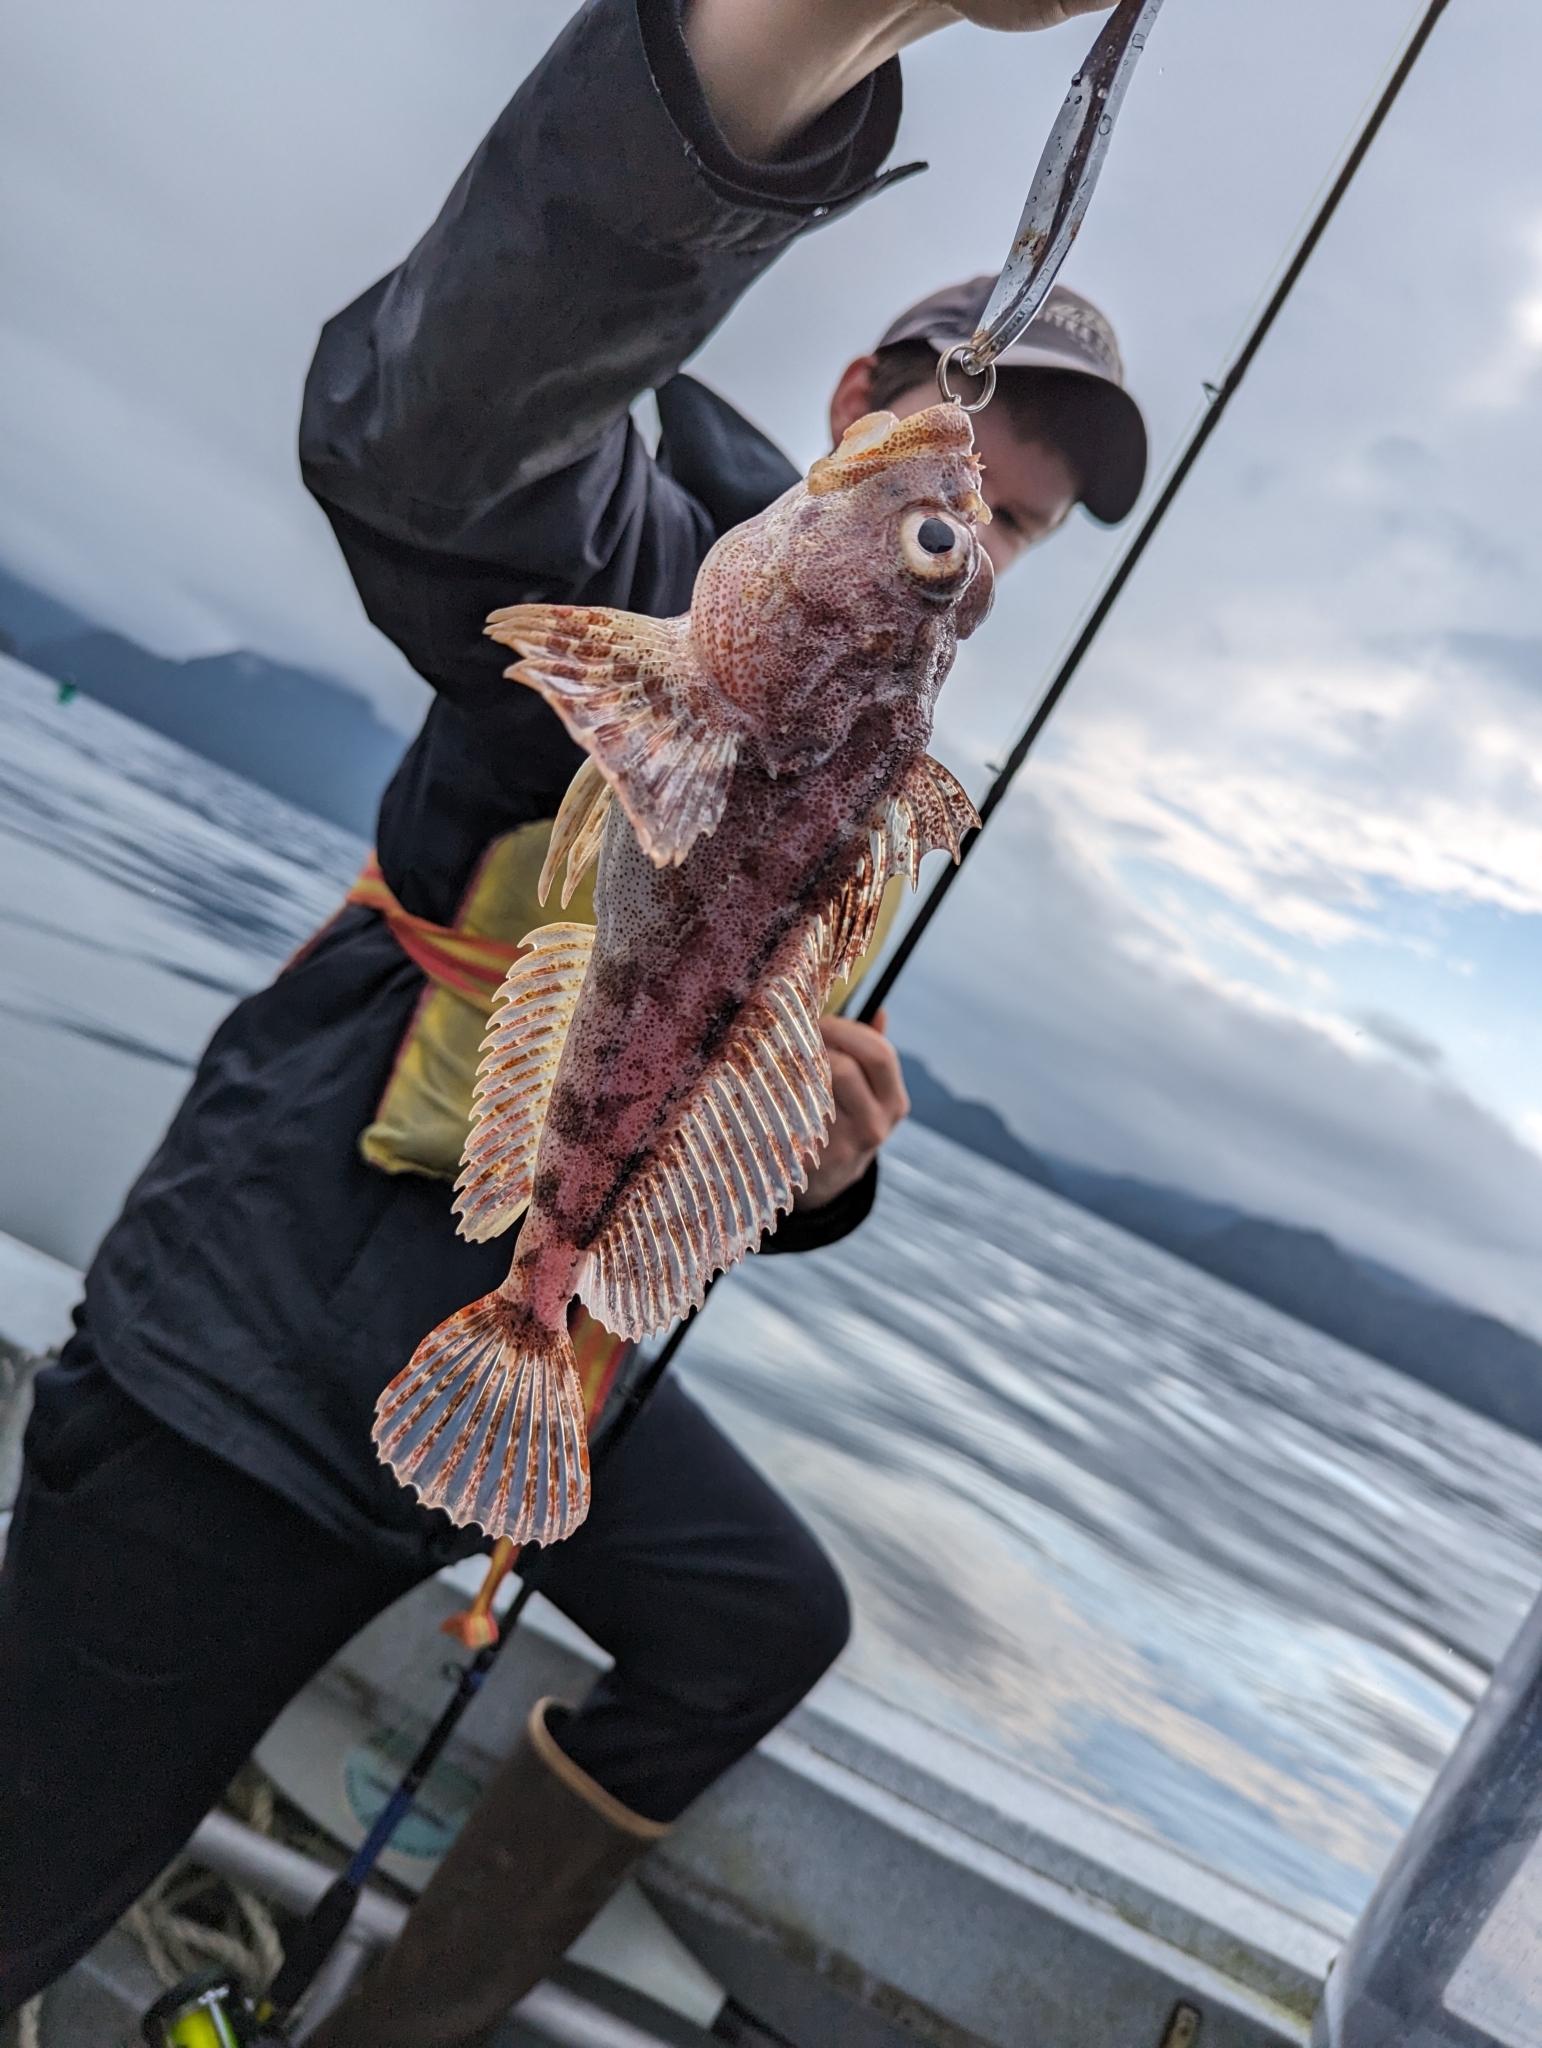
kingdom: Animalia
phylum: Chordata
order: Scorpaeniformes
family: Cottidae
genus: Hemilepidotus
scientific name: Hemilepidotus hemilepidotus
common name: Red irish lord
